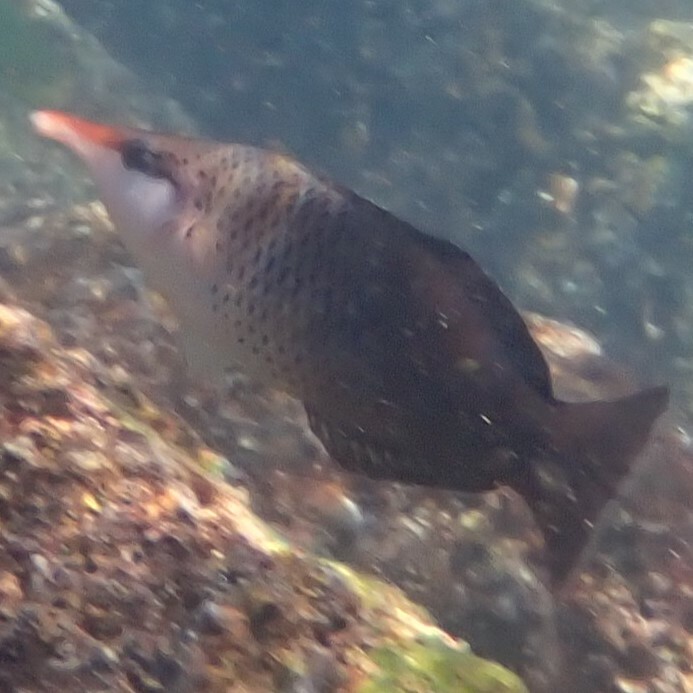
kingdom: Animalia
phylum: Chordata
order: Perciformes
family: Labridae
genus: Gomphosus
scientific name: Gomphosus varius
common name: Bird wrasse
